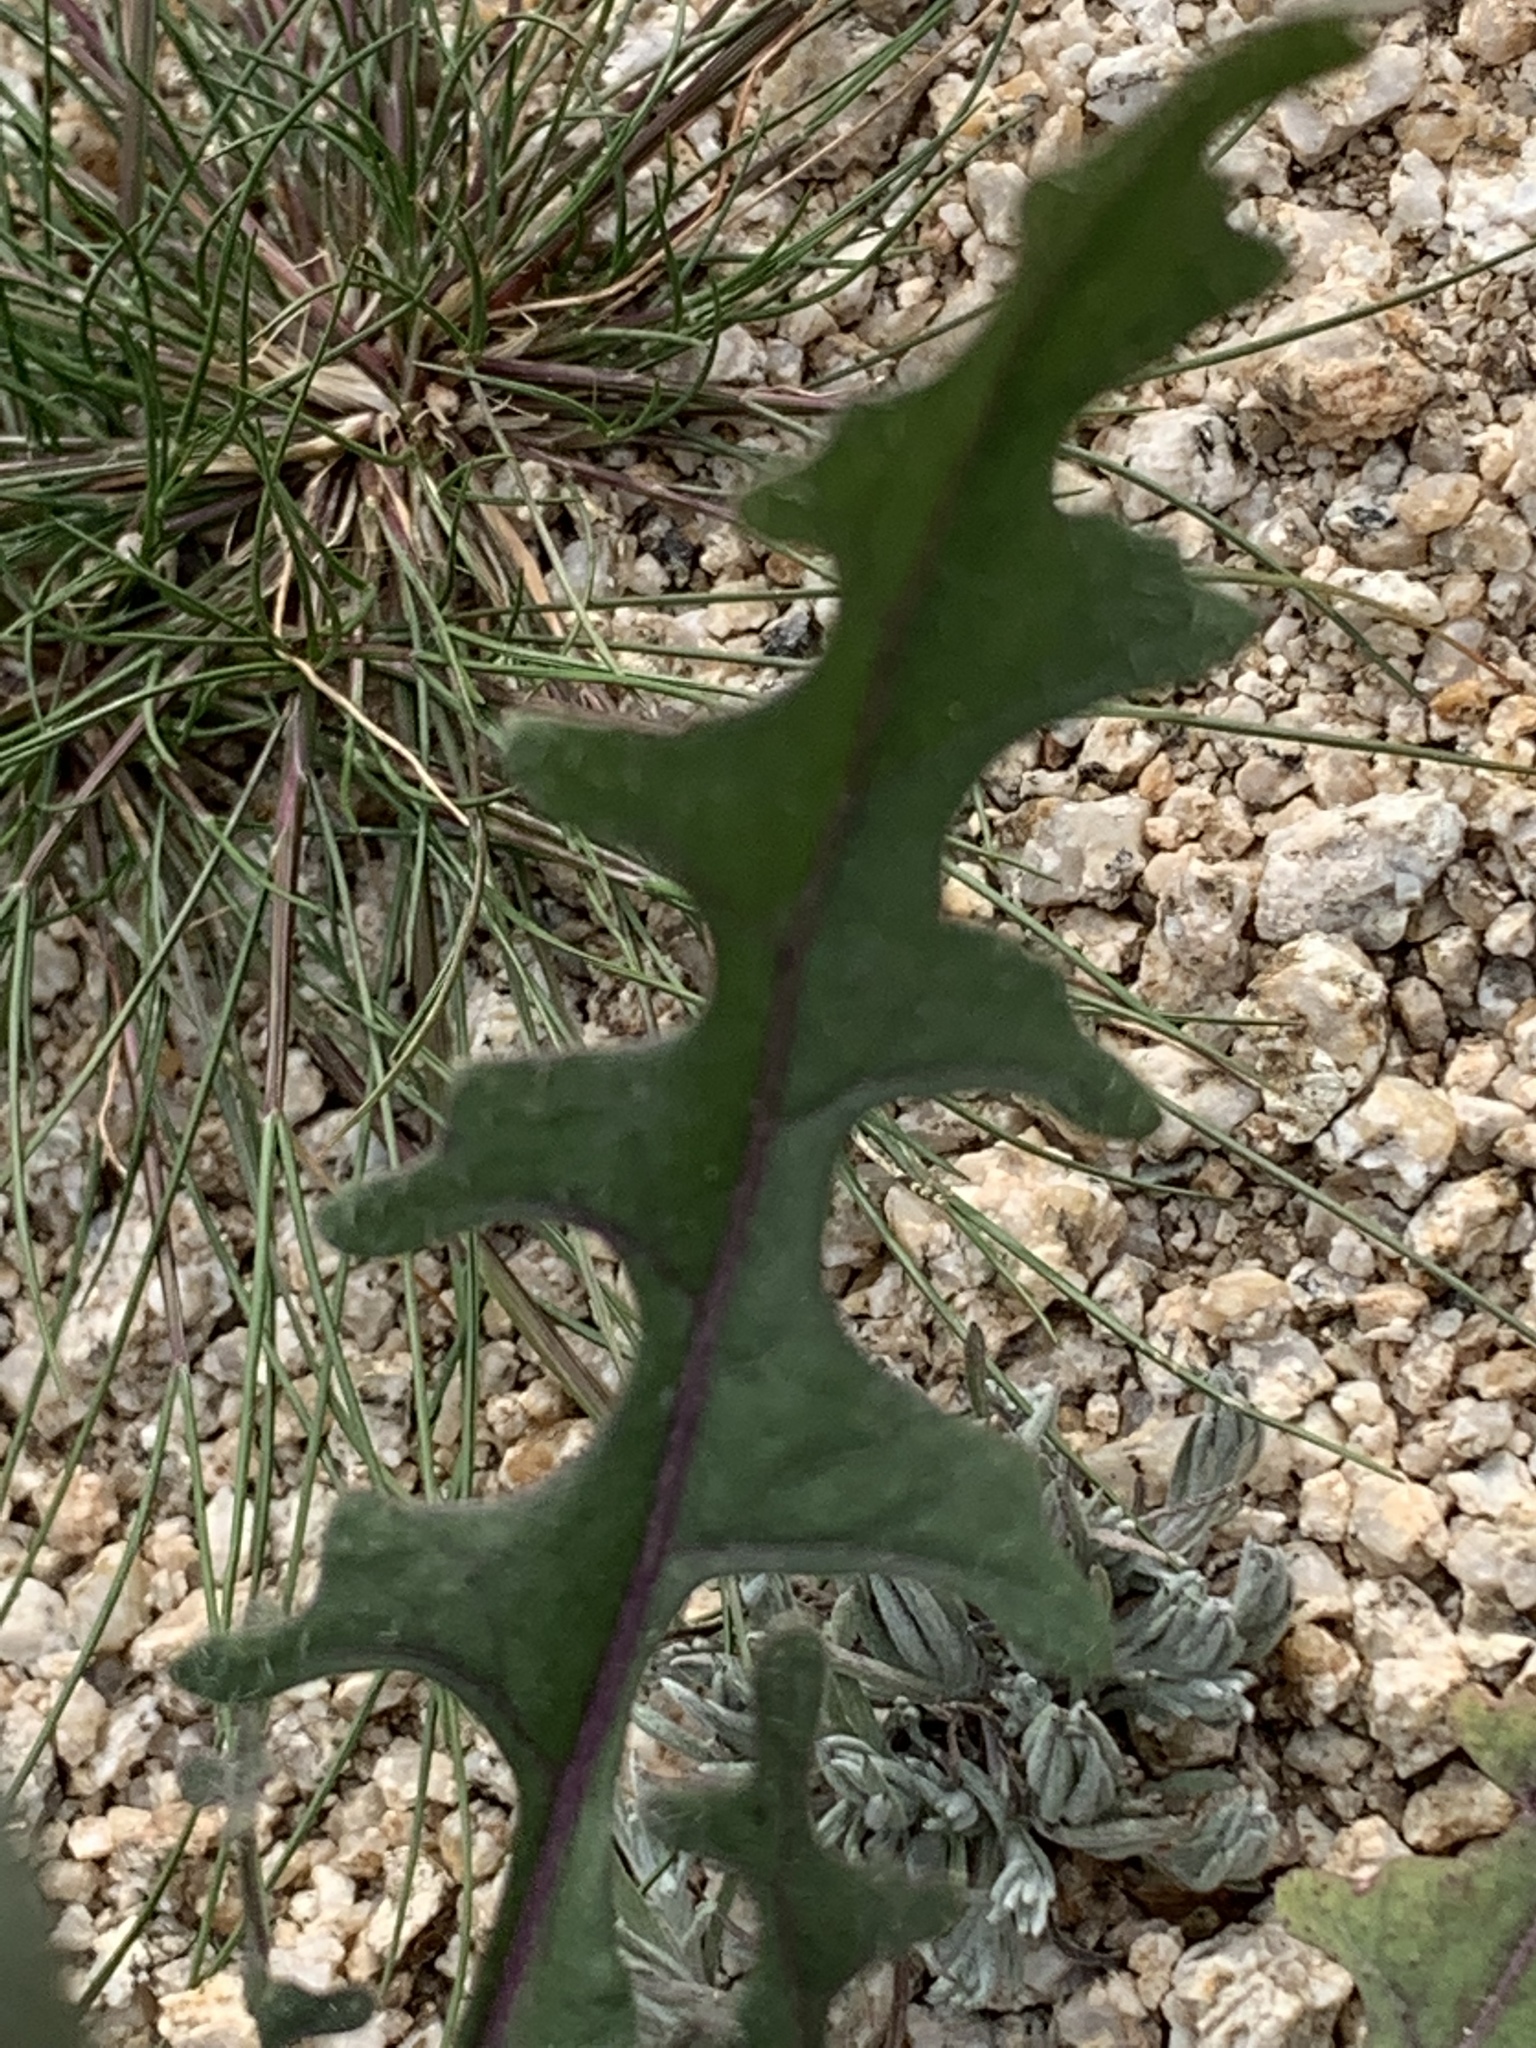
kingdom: Plantae
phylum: Tracheophyta
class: Magnoliopsida
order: Brassicales
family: Brassicaceae
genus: Streptanthus
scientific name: Streptanthus lasiophyllus
